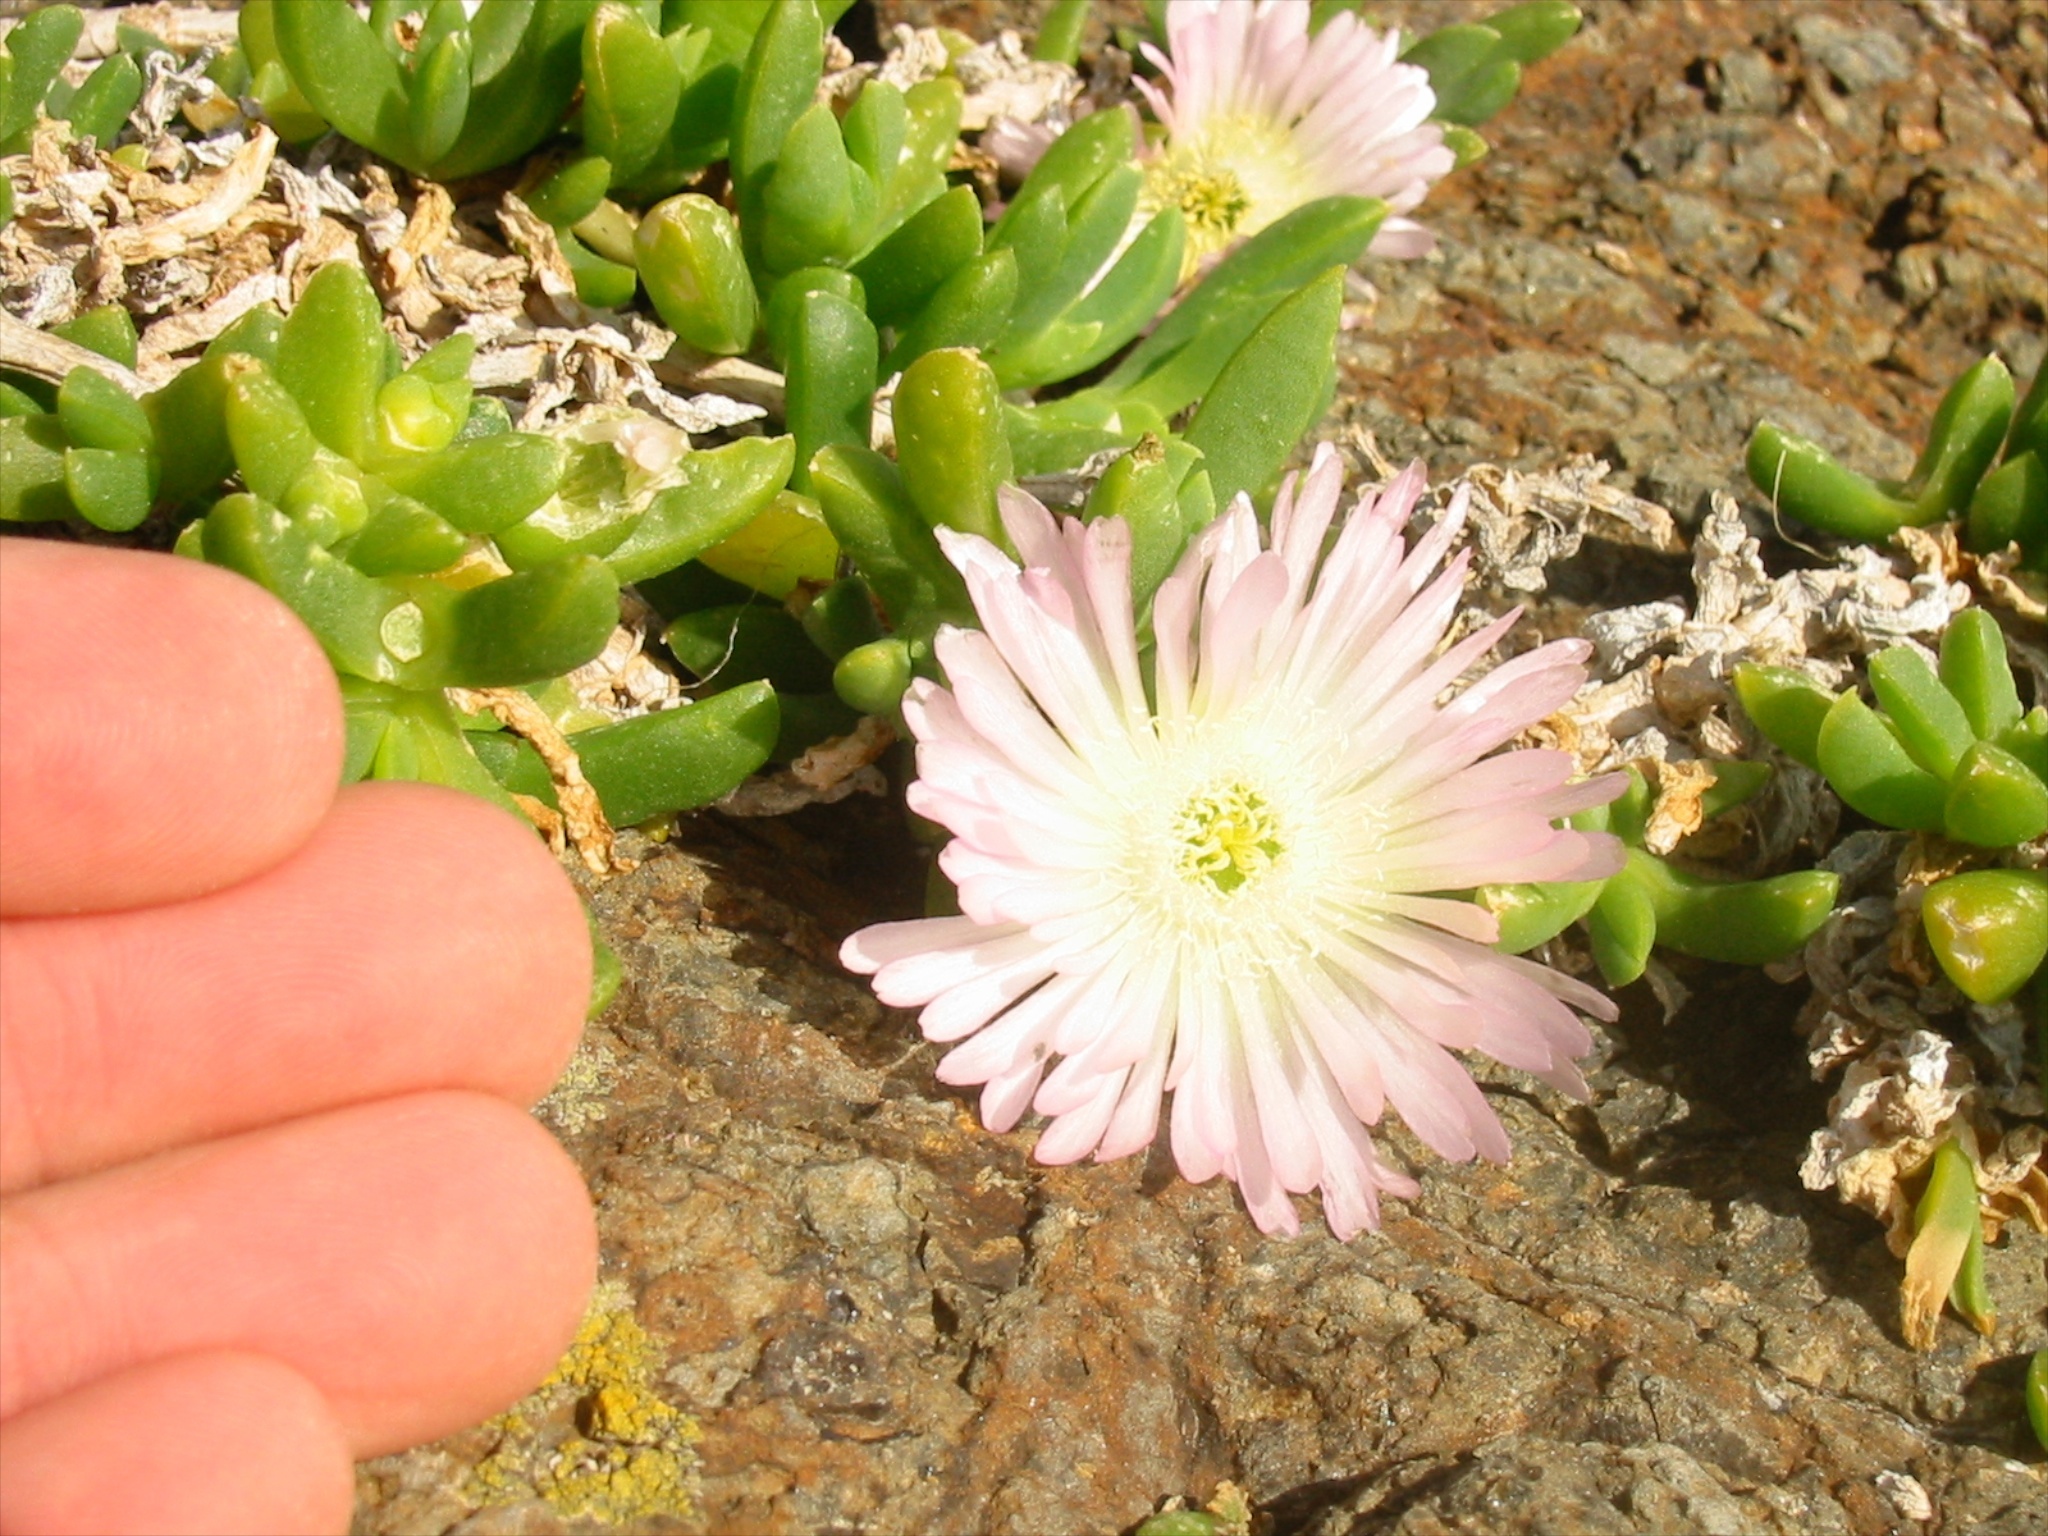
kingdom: Plantae
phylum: Tracheophyta
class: Magnoliopsida
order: Caryophyllales
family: Aizoaceae
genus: Disphyma
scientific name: Disphyma australe
